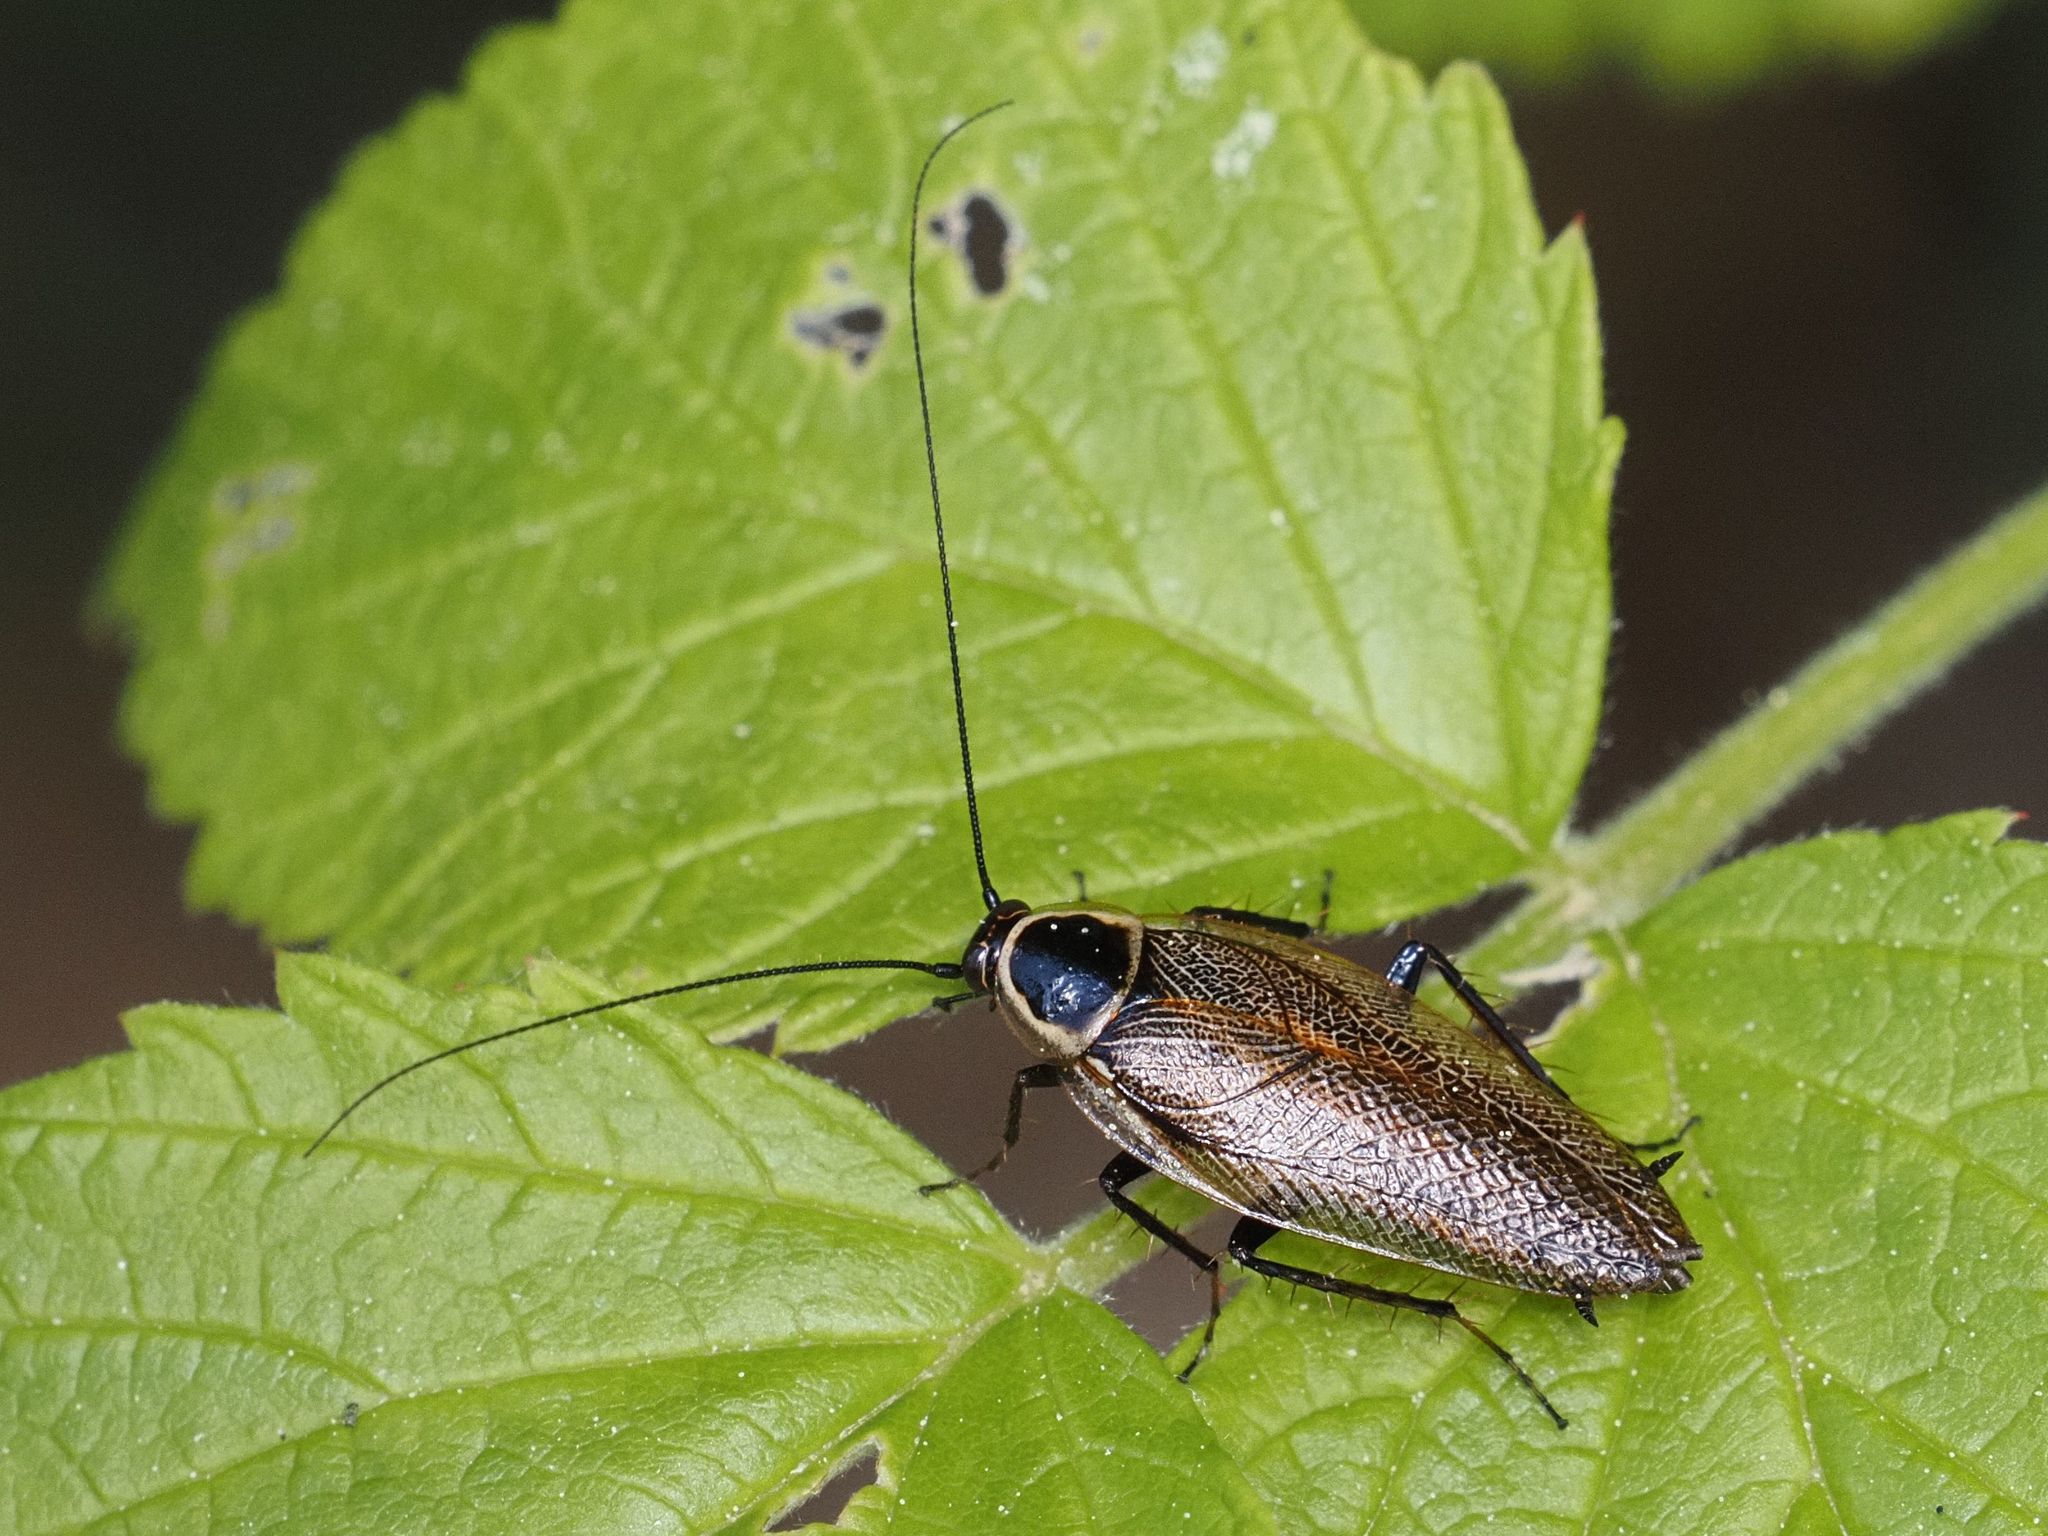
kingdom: Animalia
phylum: Arthropoda
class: Insecta
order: Blattodea
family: Ectobiidae
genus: Ectobius
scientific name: Ectobius sylvestris
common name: Forest cockroach
